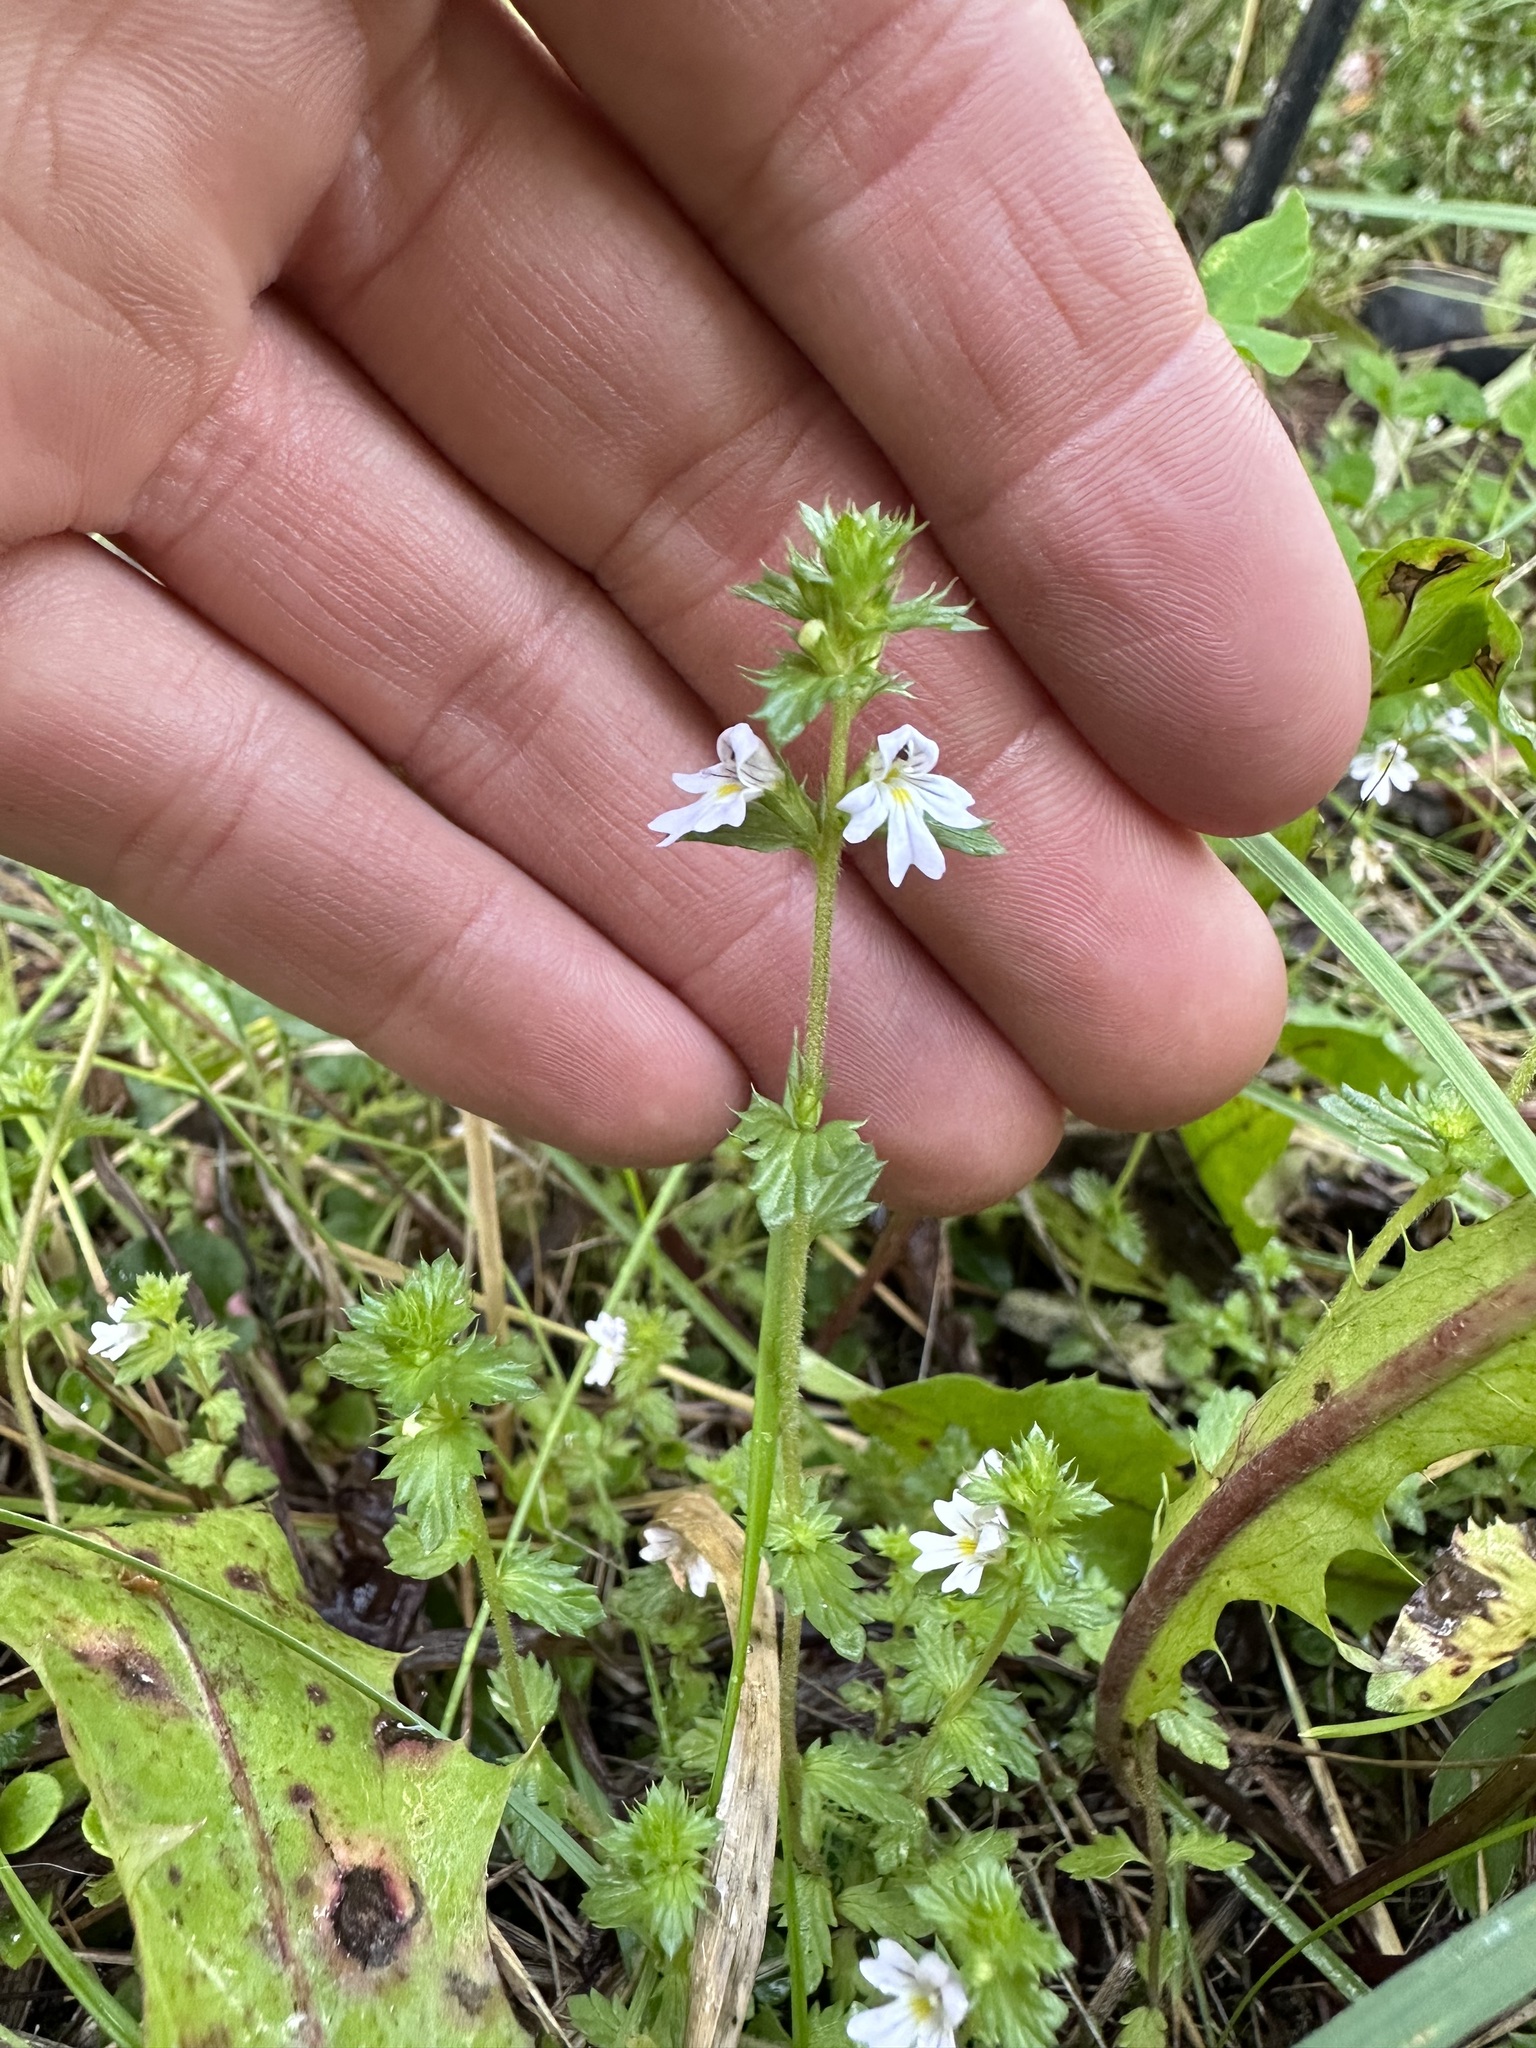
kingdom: Plantae
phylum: Tracheophyta
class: Magnoliopsida
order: Lamiales
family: Orobanchaceae
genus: Euphrasia
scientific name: Euphrasia nemorosa
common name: Common eyebright
